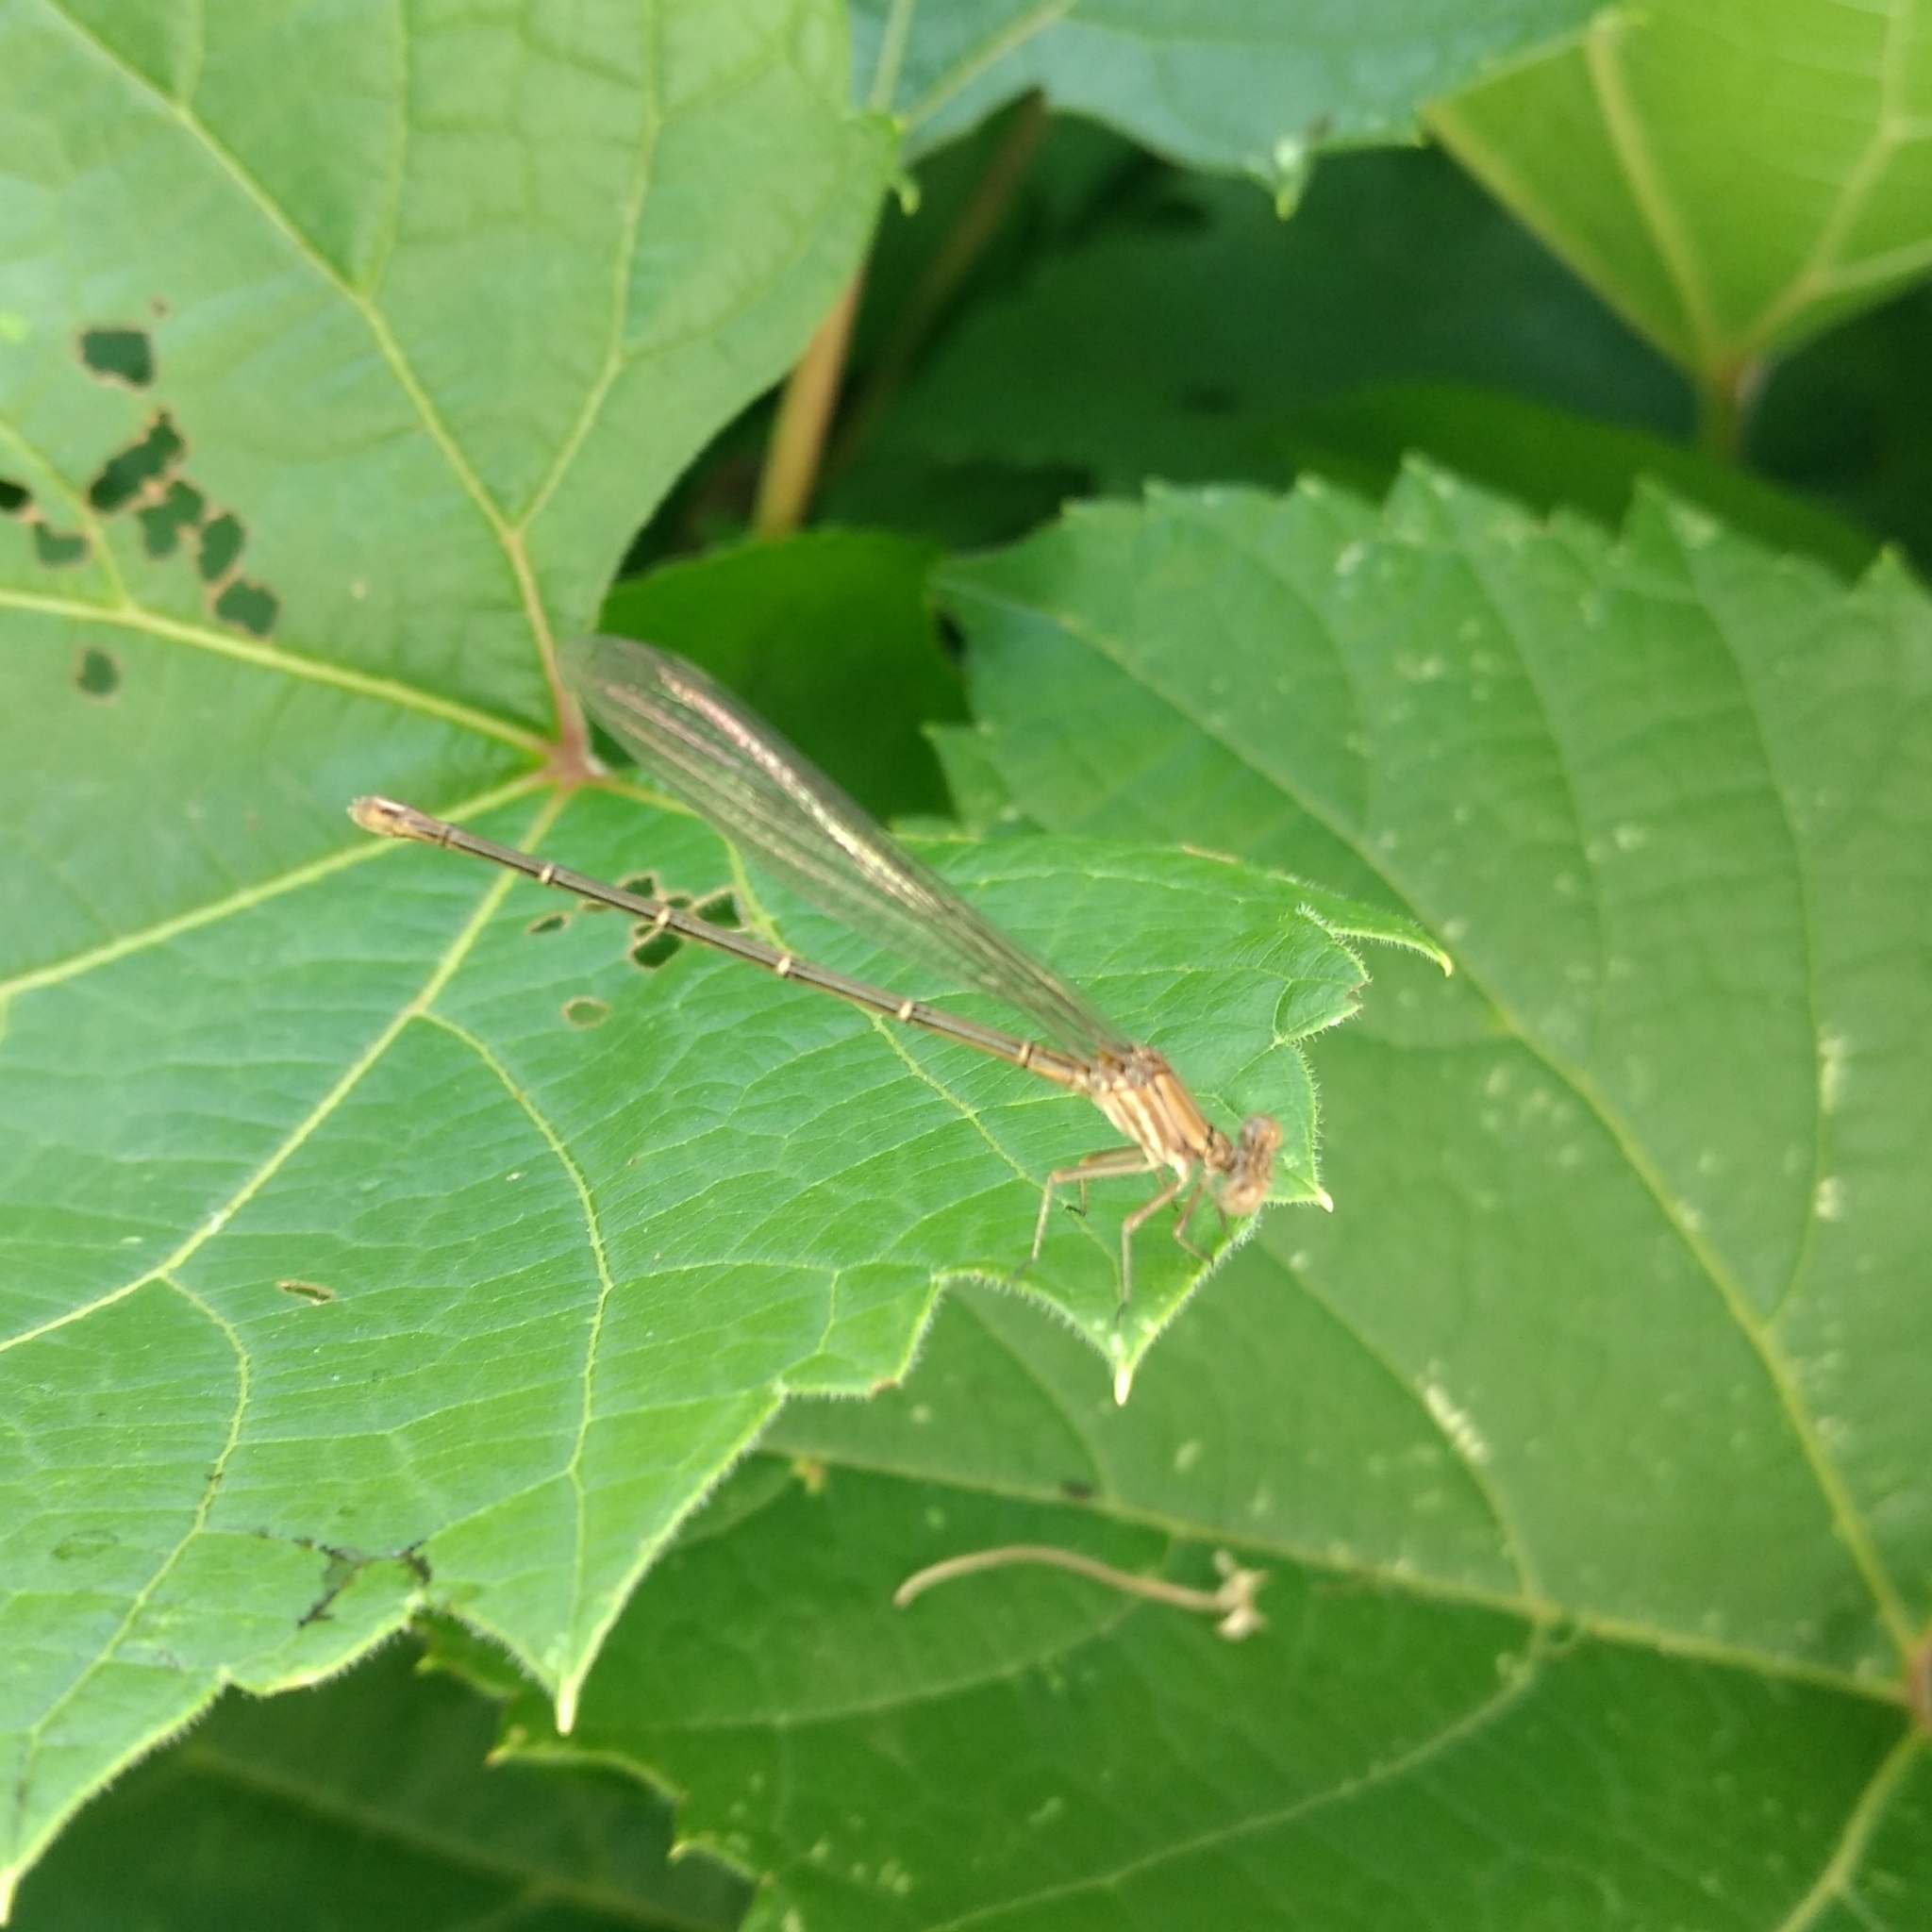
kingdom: Animalia
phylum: Arthropoda
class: Insecta
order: Odonata
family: Coenagrionidae
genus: Argia
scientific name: Argia moesta
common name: Powdered dancer
